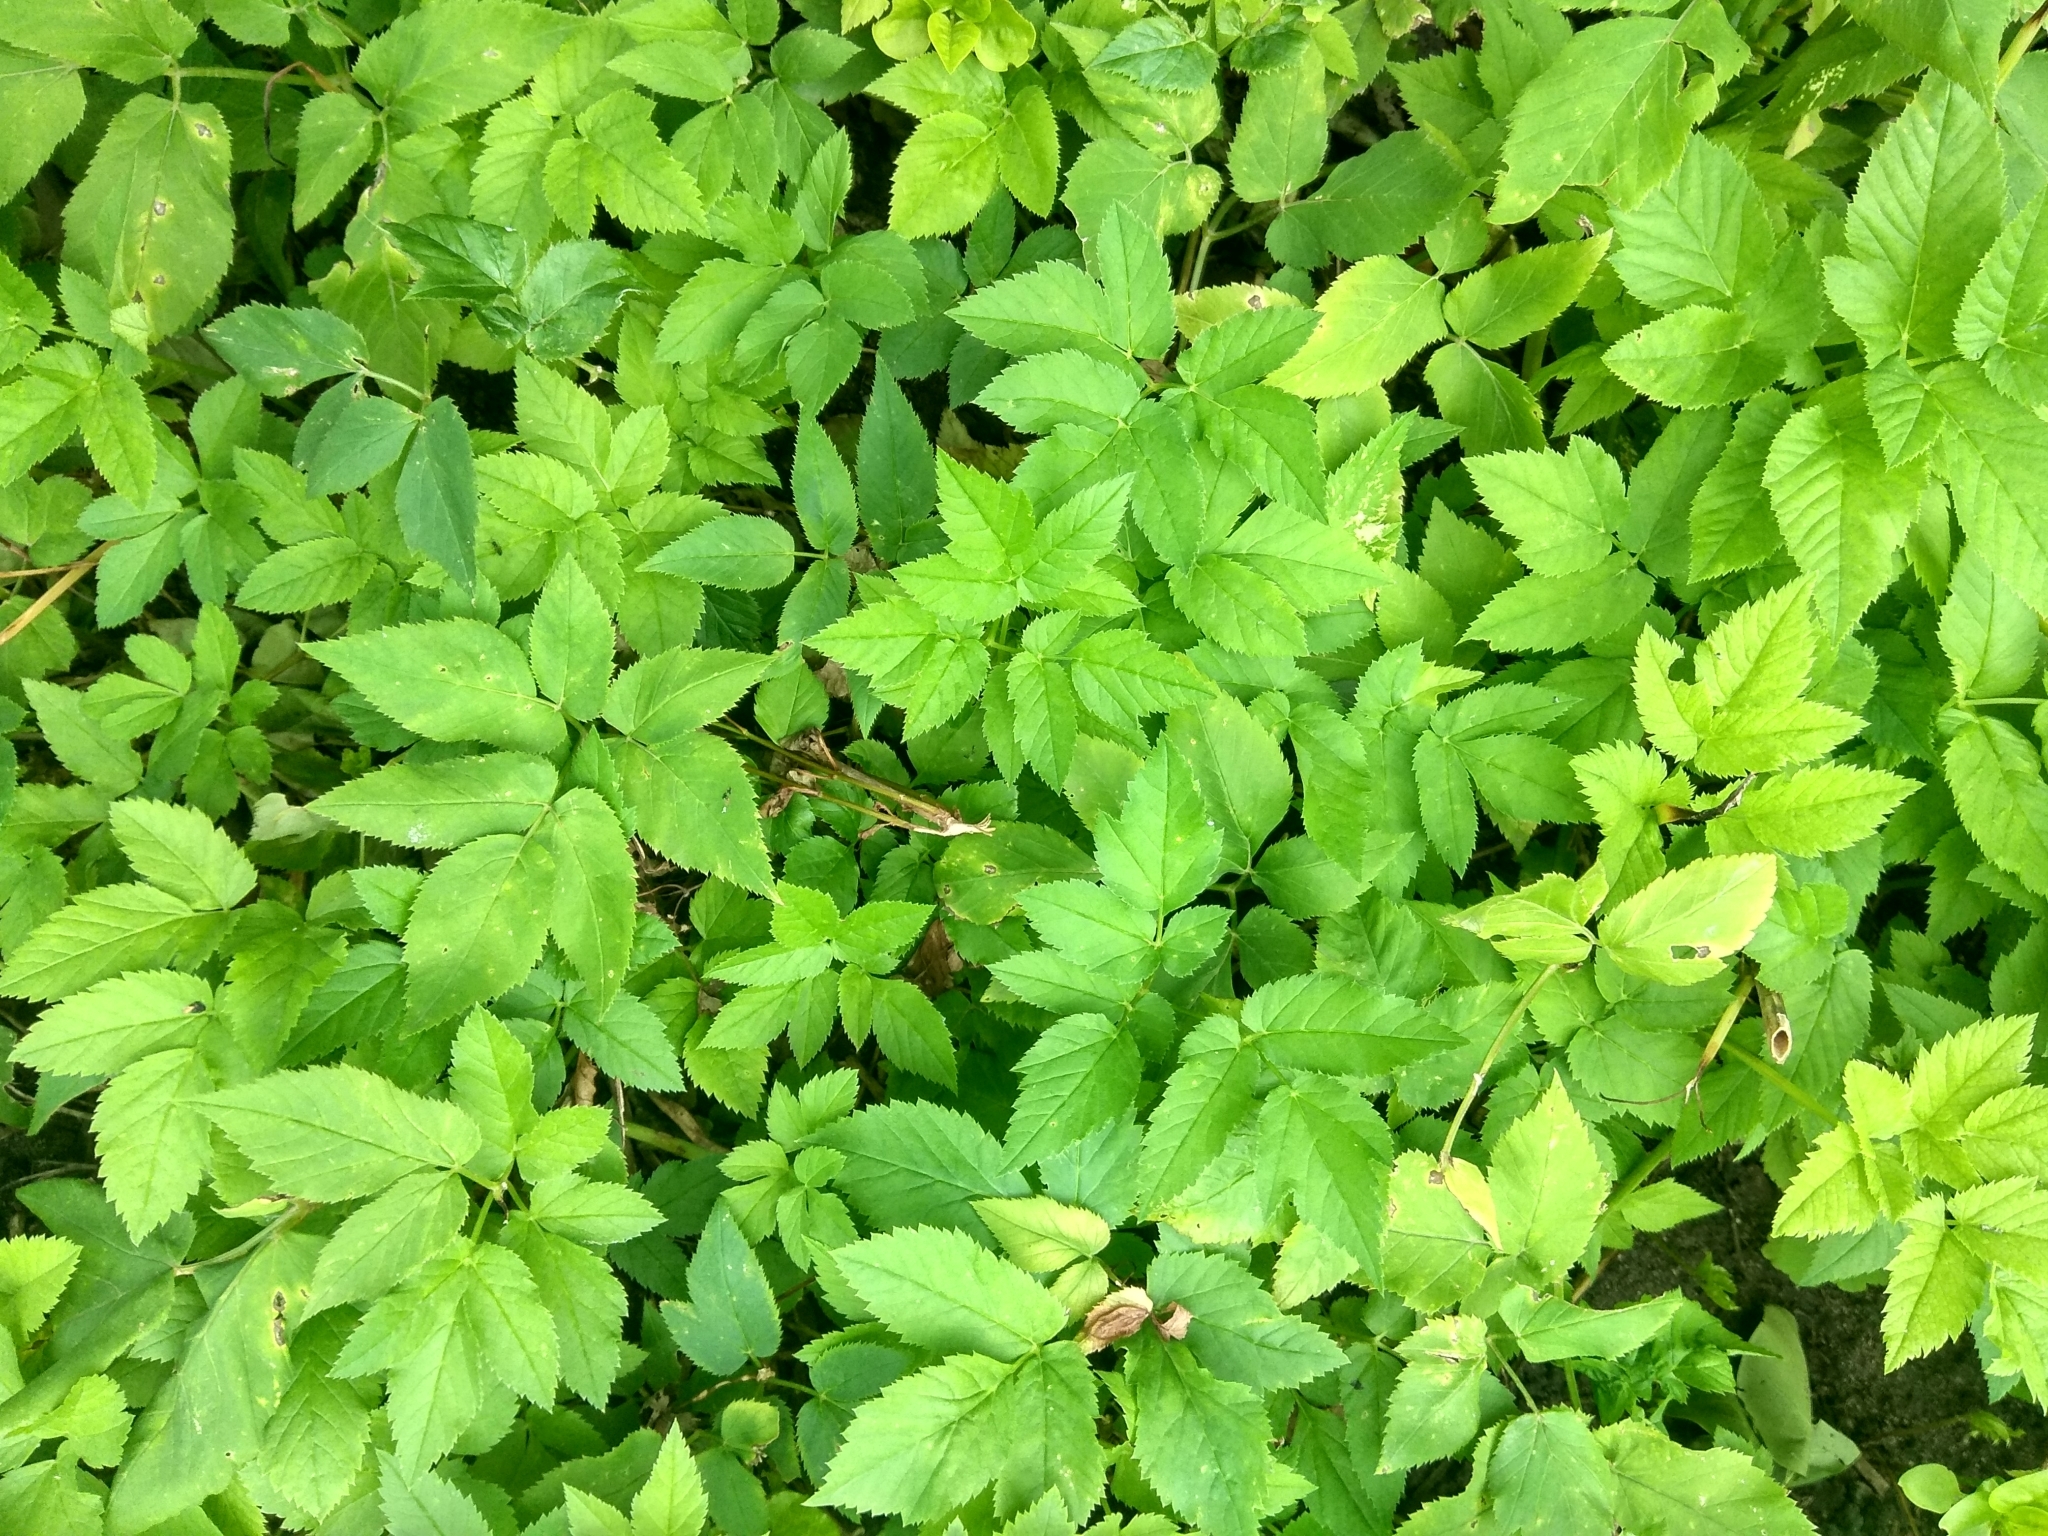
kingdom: Plantae
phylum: Tracheophyta
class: Magnoliopsida
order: Apiales
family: Apiaceae
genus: Aegopodium
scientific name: Aegopodium podagraria
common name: Ground-elder
